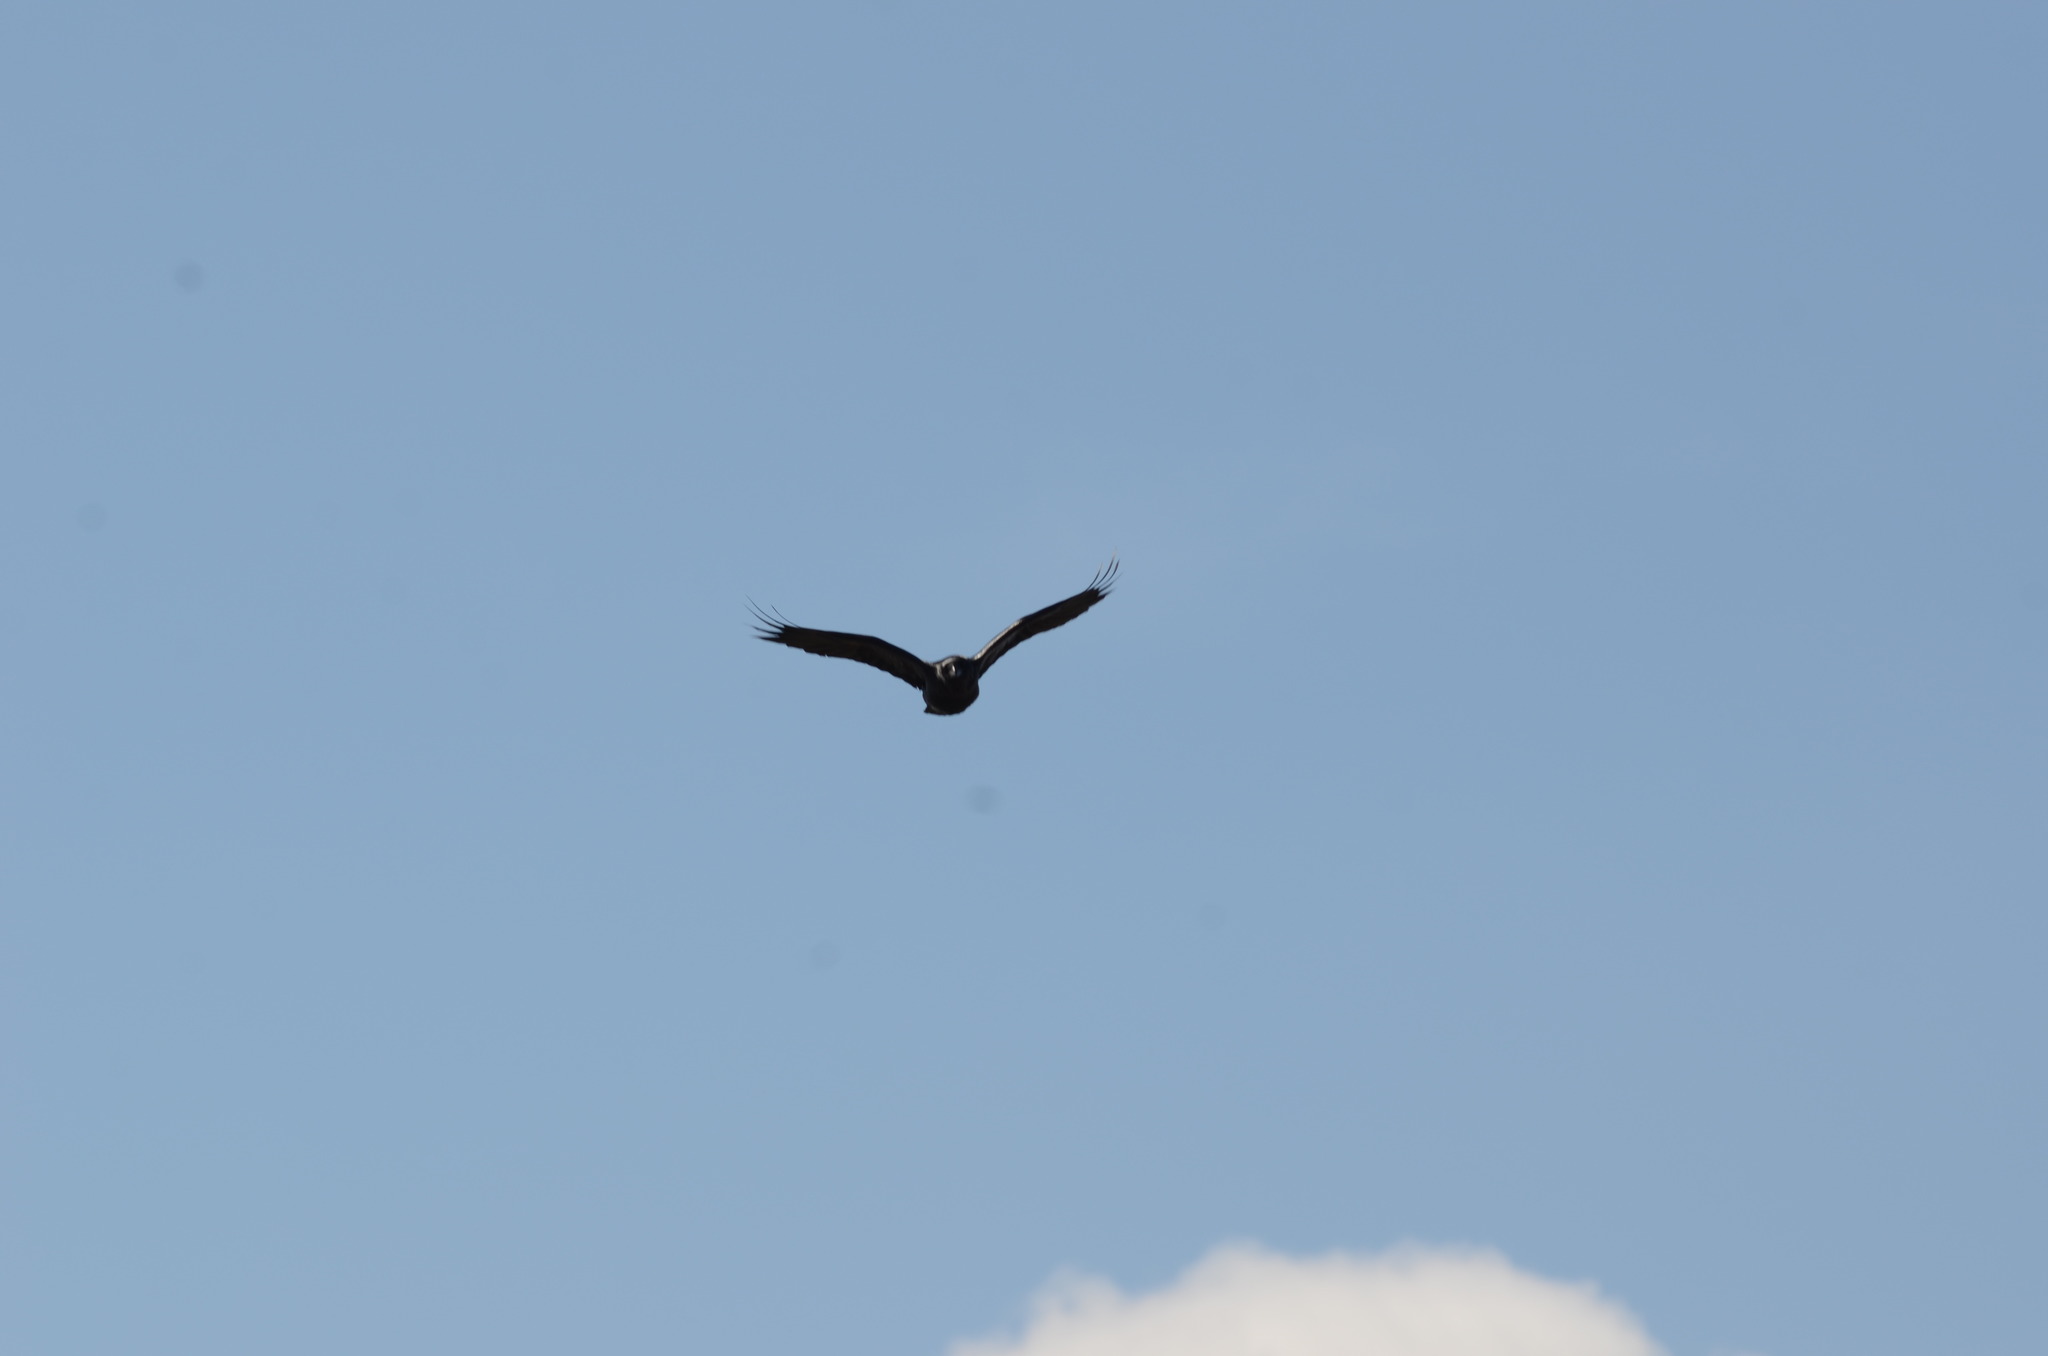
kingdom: Animalia
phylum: Chordata
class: Aves
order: Passeriformes
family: Corvidae
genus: Corvus
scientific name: Corvus corax
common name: Common raven
